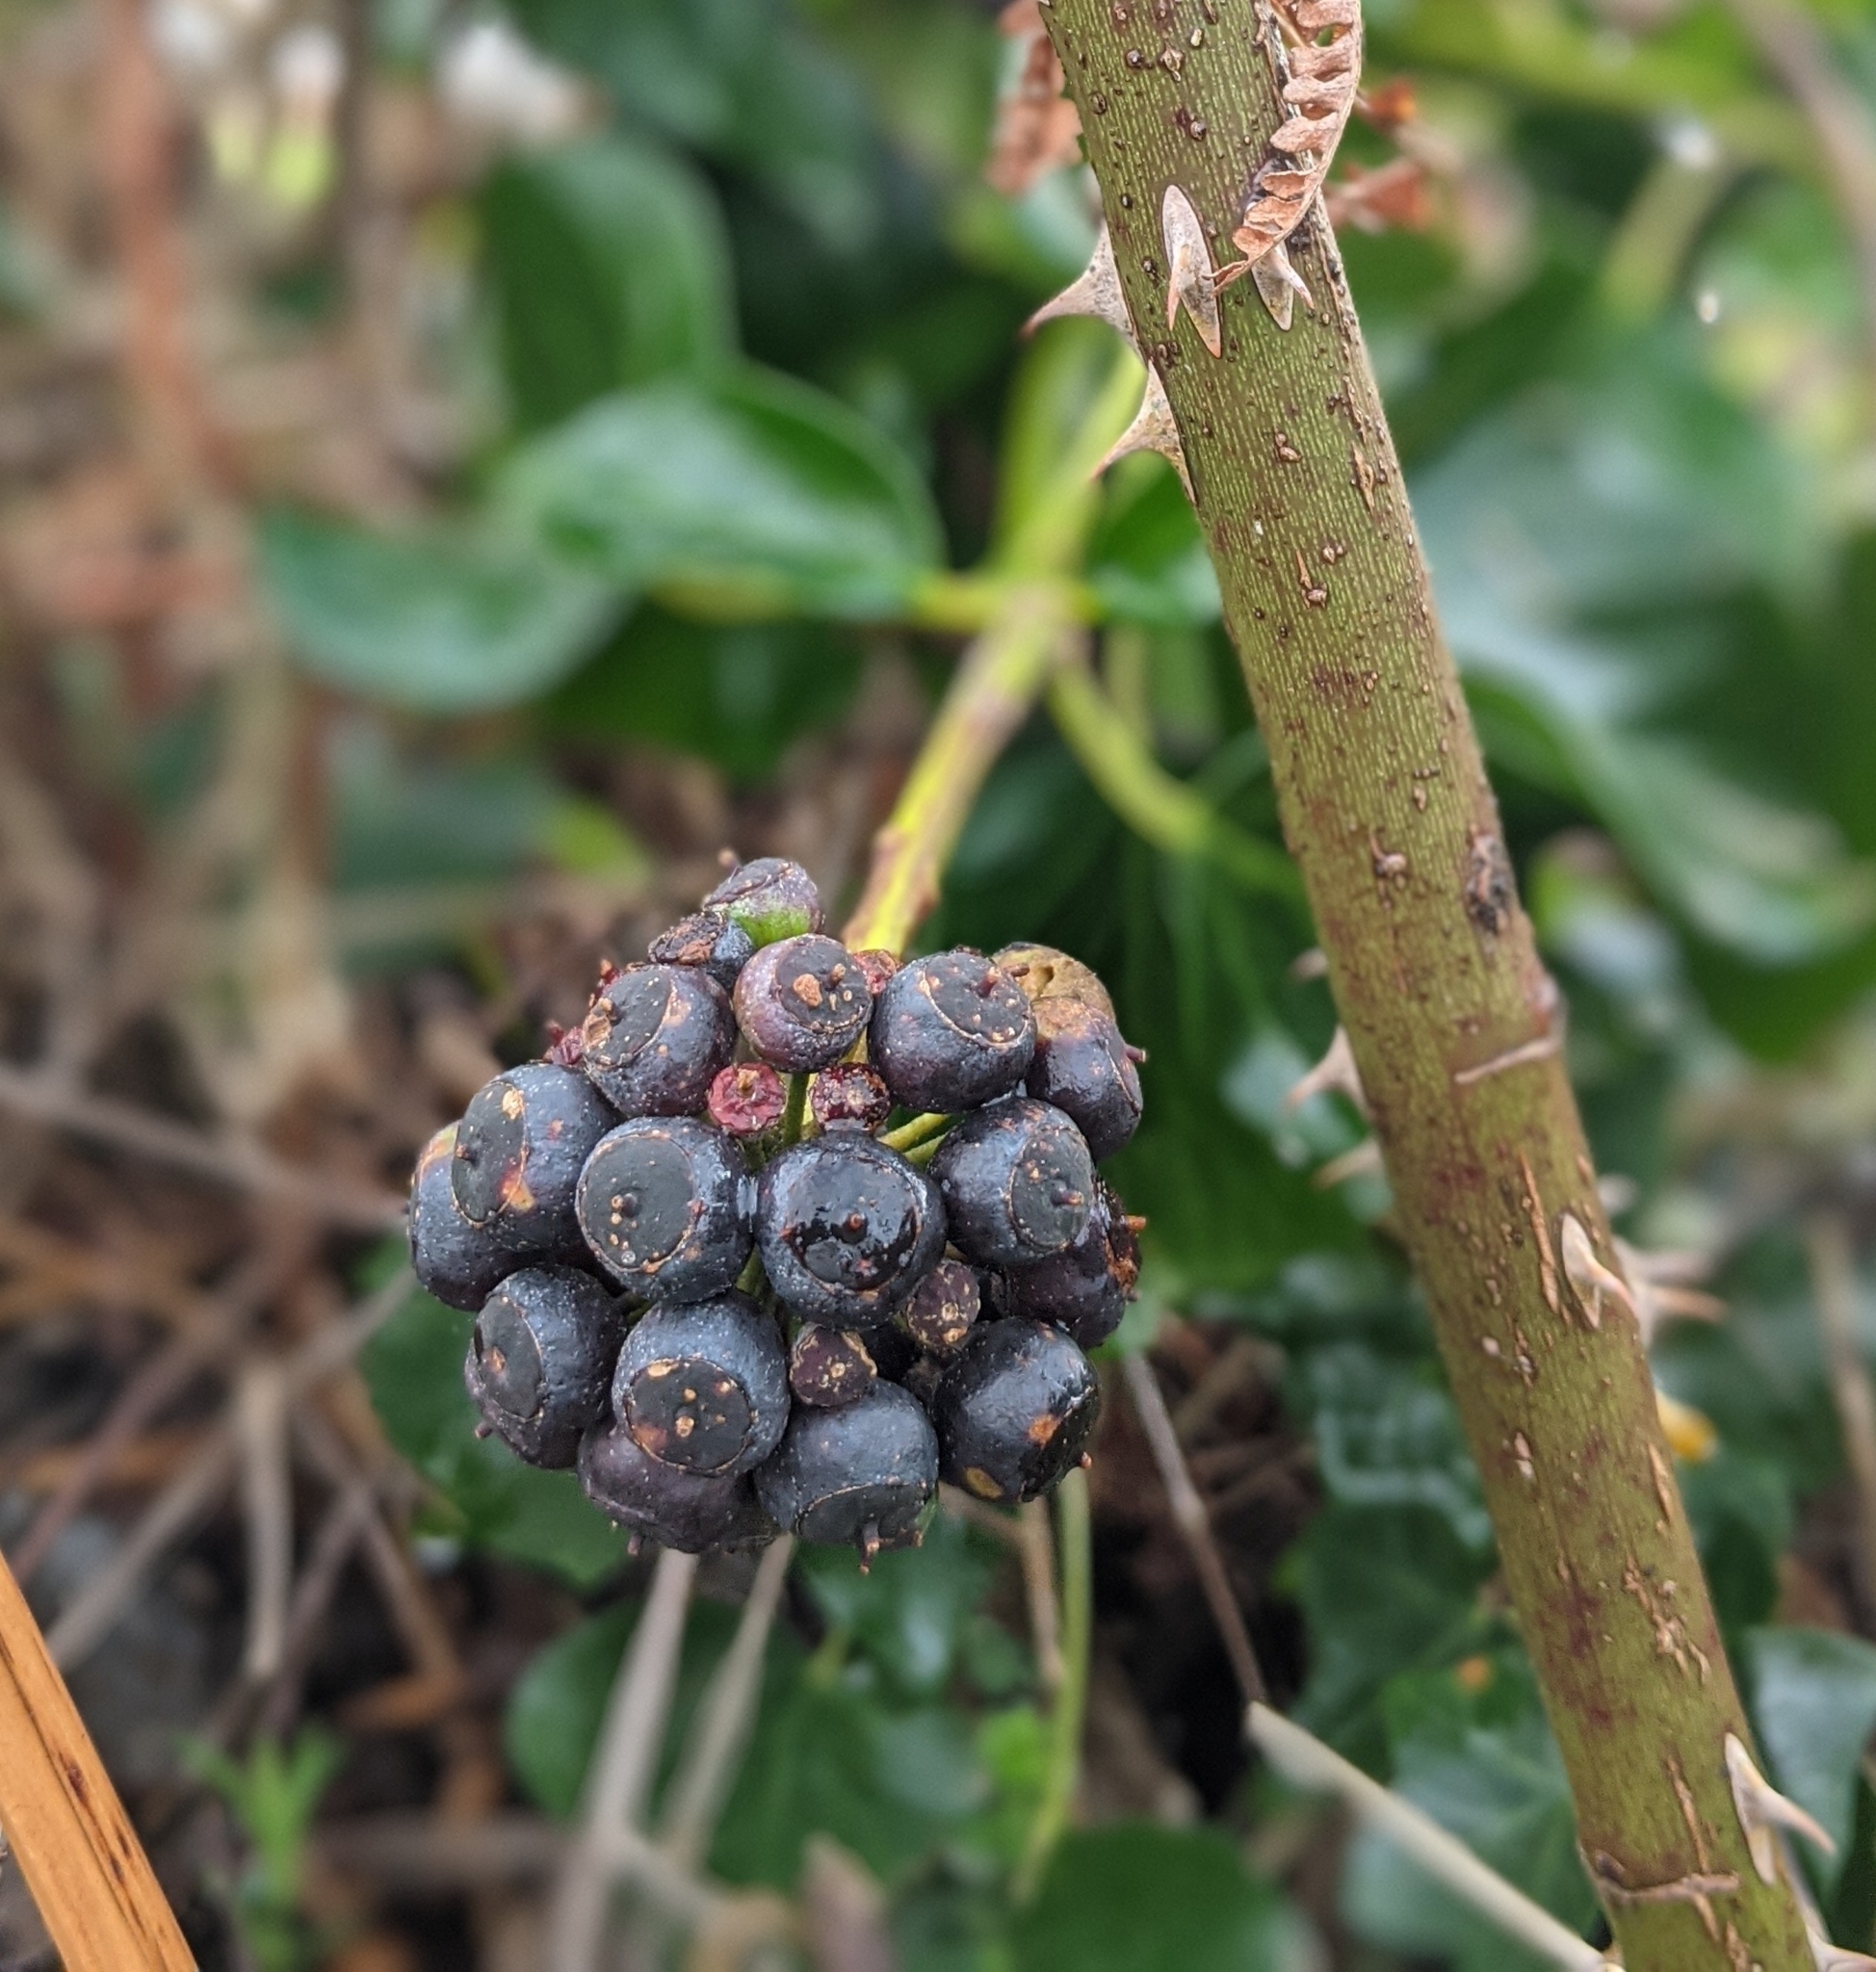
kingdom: Plantae
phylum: Tracheophyta
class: Magnoliopsida
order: Apiales
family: Araliaceae
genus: Hedera
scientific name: Hedera helix
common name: Ivy
